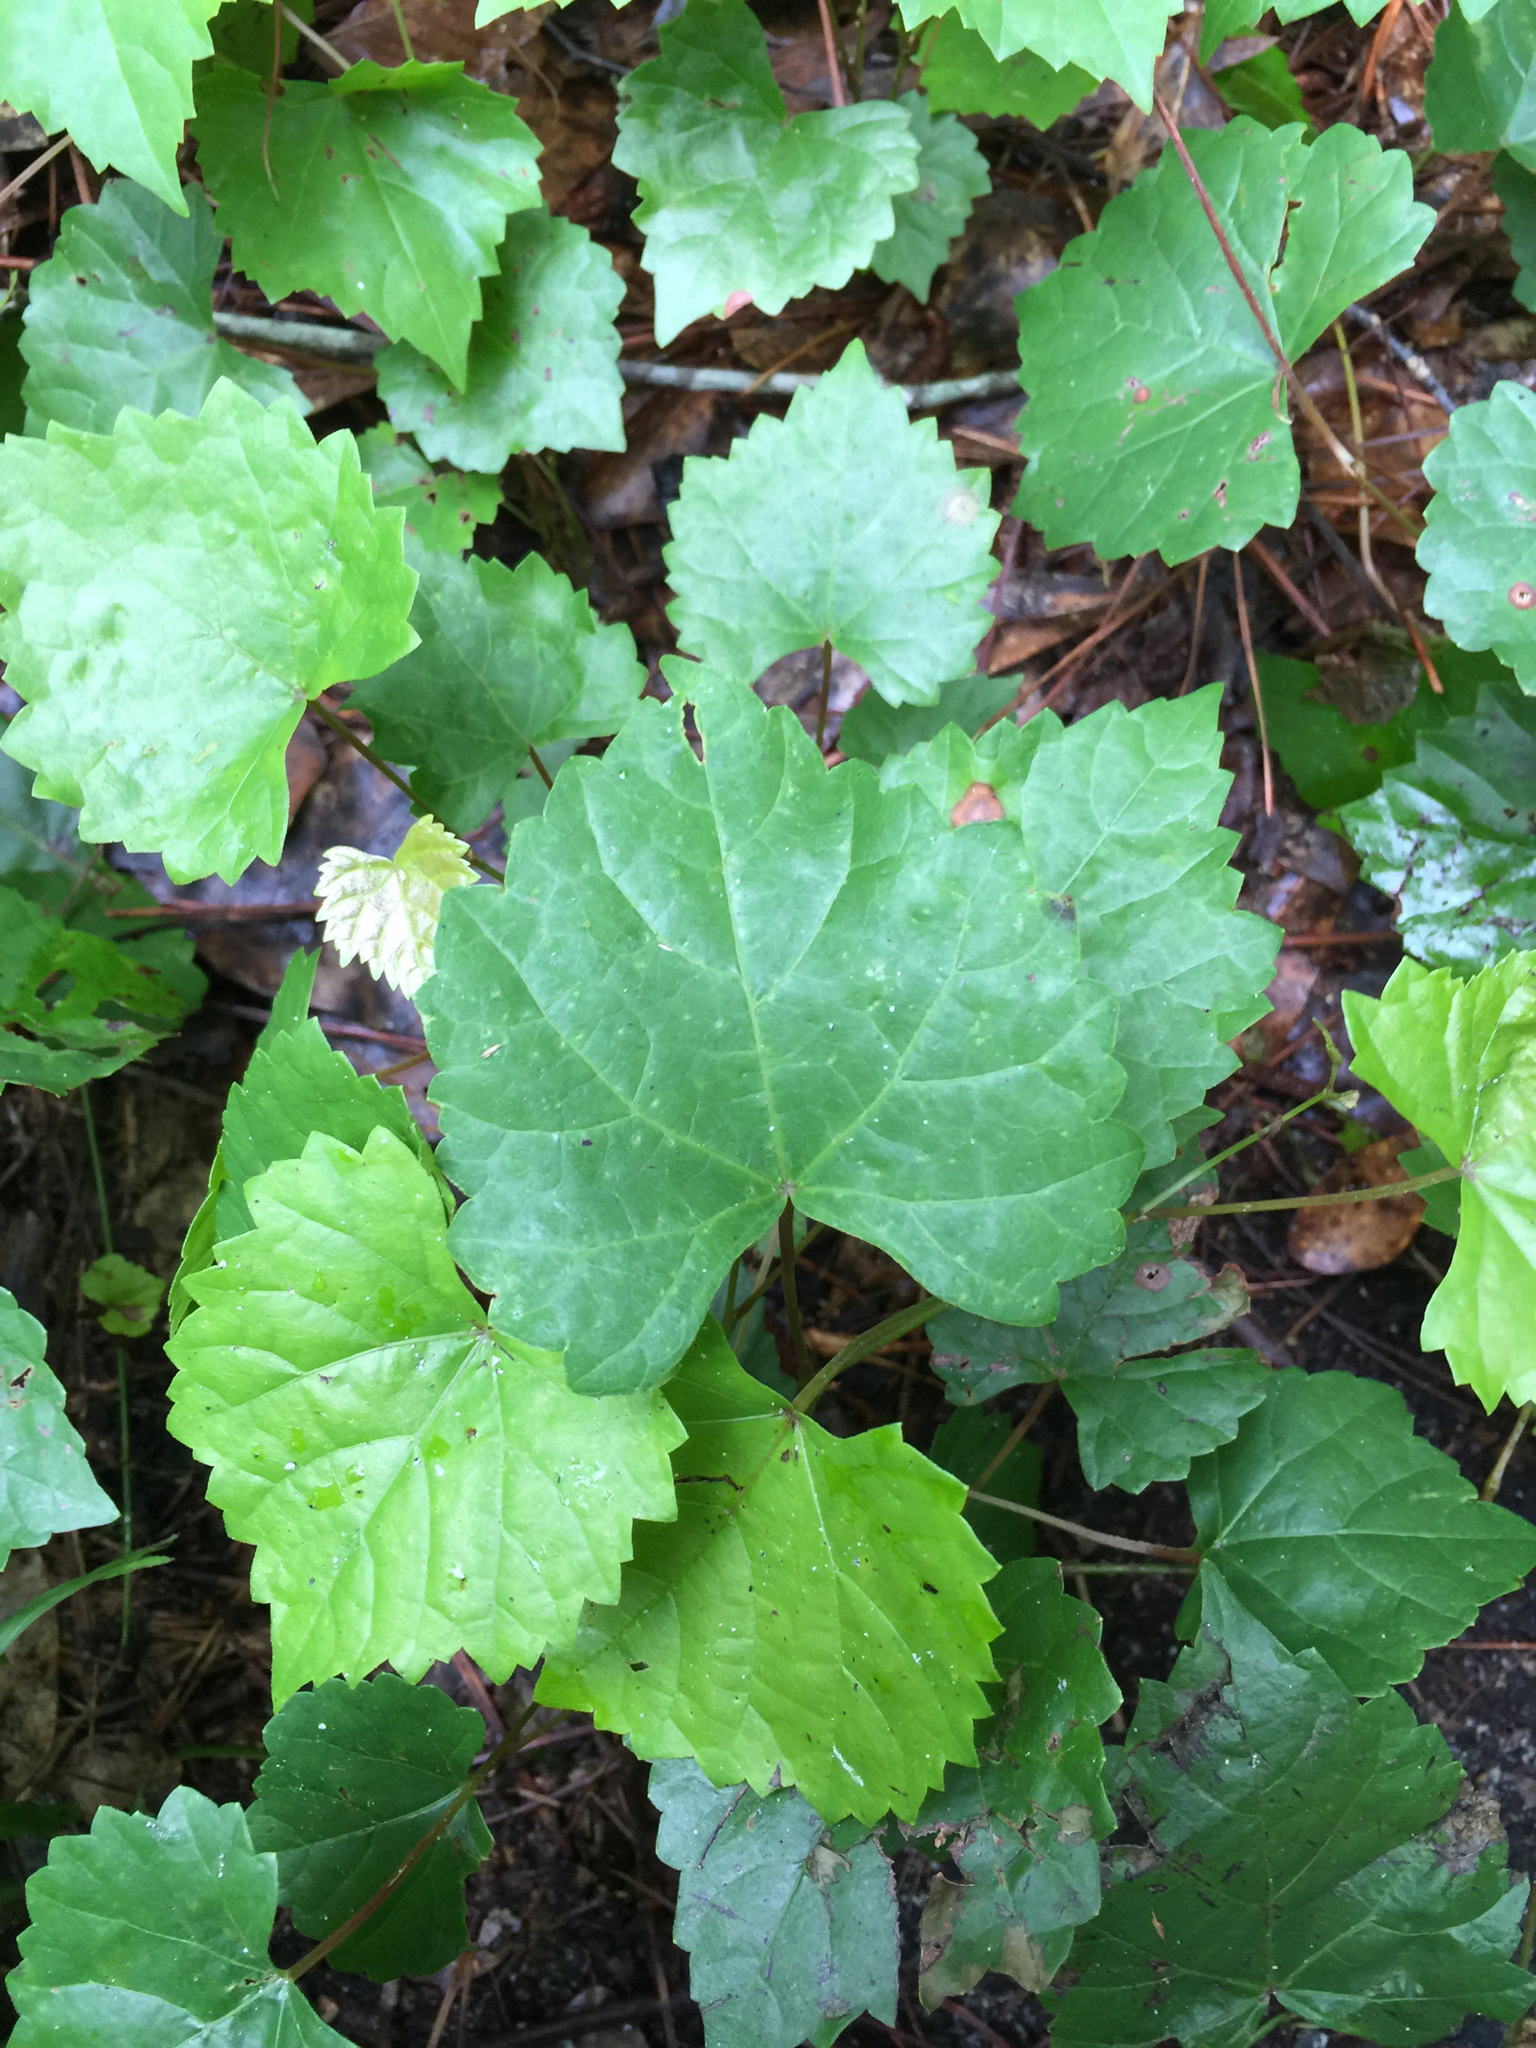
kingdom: Plantae
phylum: Tracheophyta
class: Magnoliopsida
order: Vitales
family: Vitaceae
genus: Vitis
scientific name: Vitis rotundifolia
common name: Muscadine grape
